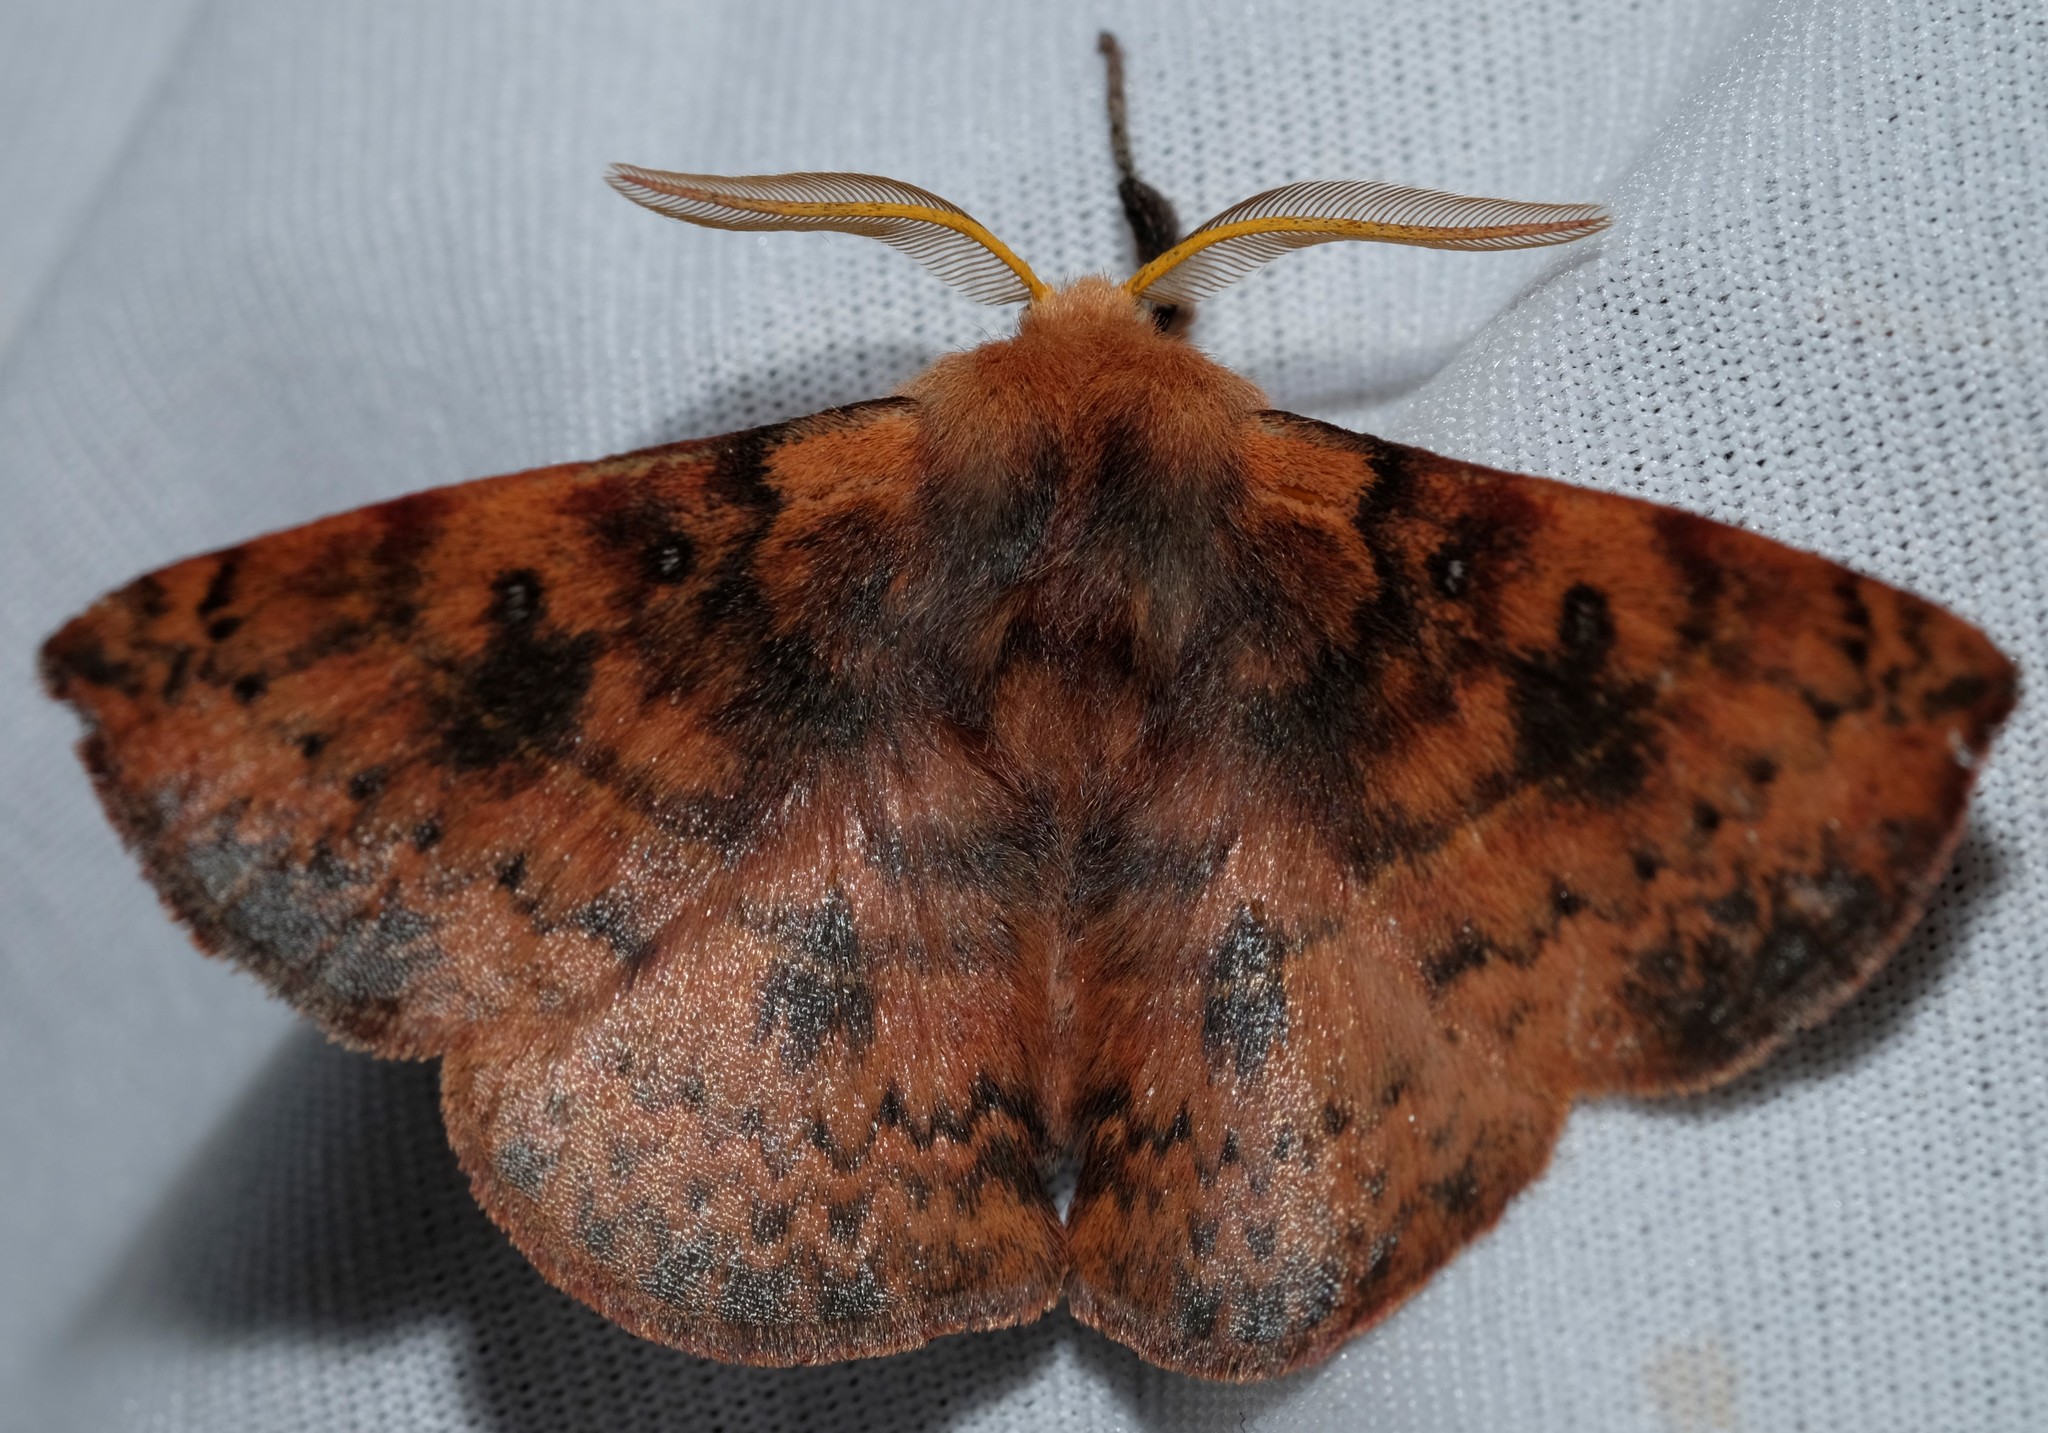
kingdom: Animalia
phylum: Arthropoda
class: Insecta
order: Lepidoptera
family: Anthelidae
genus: Anthela
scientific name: Anthela acuta
